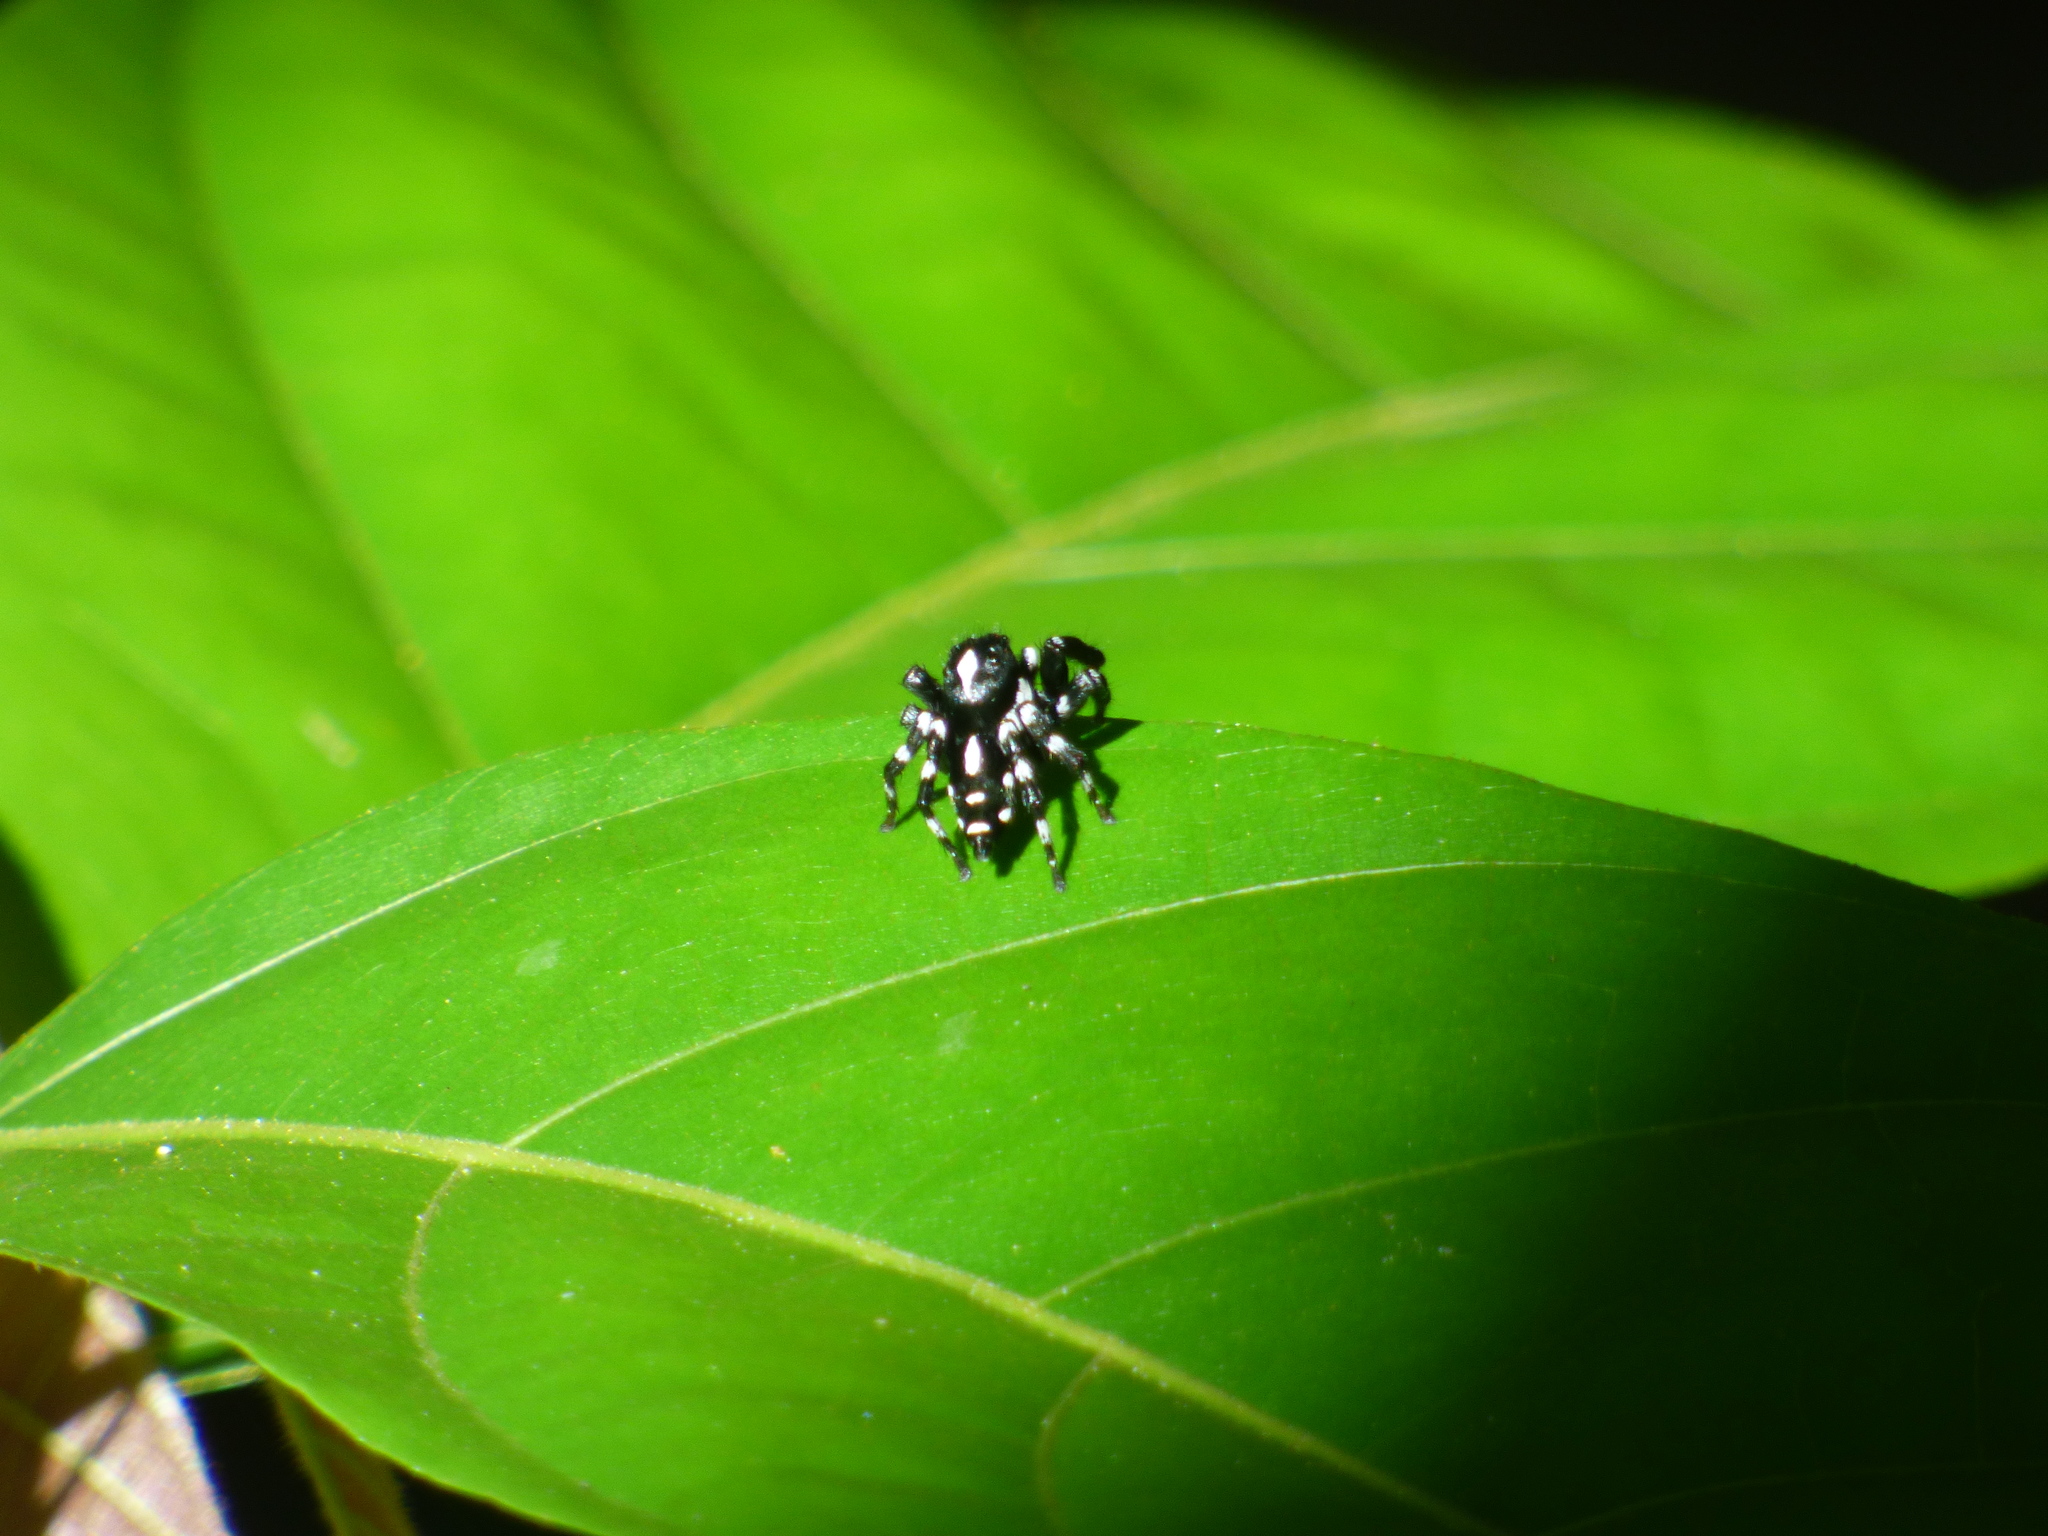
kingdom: Animalia
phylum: Arthropoda
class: Arachnida
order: Araneae
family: Salticidae
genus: Phiale
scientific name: Phiale guttata
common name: Jumping spiders
